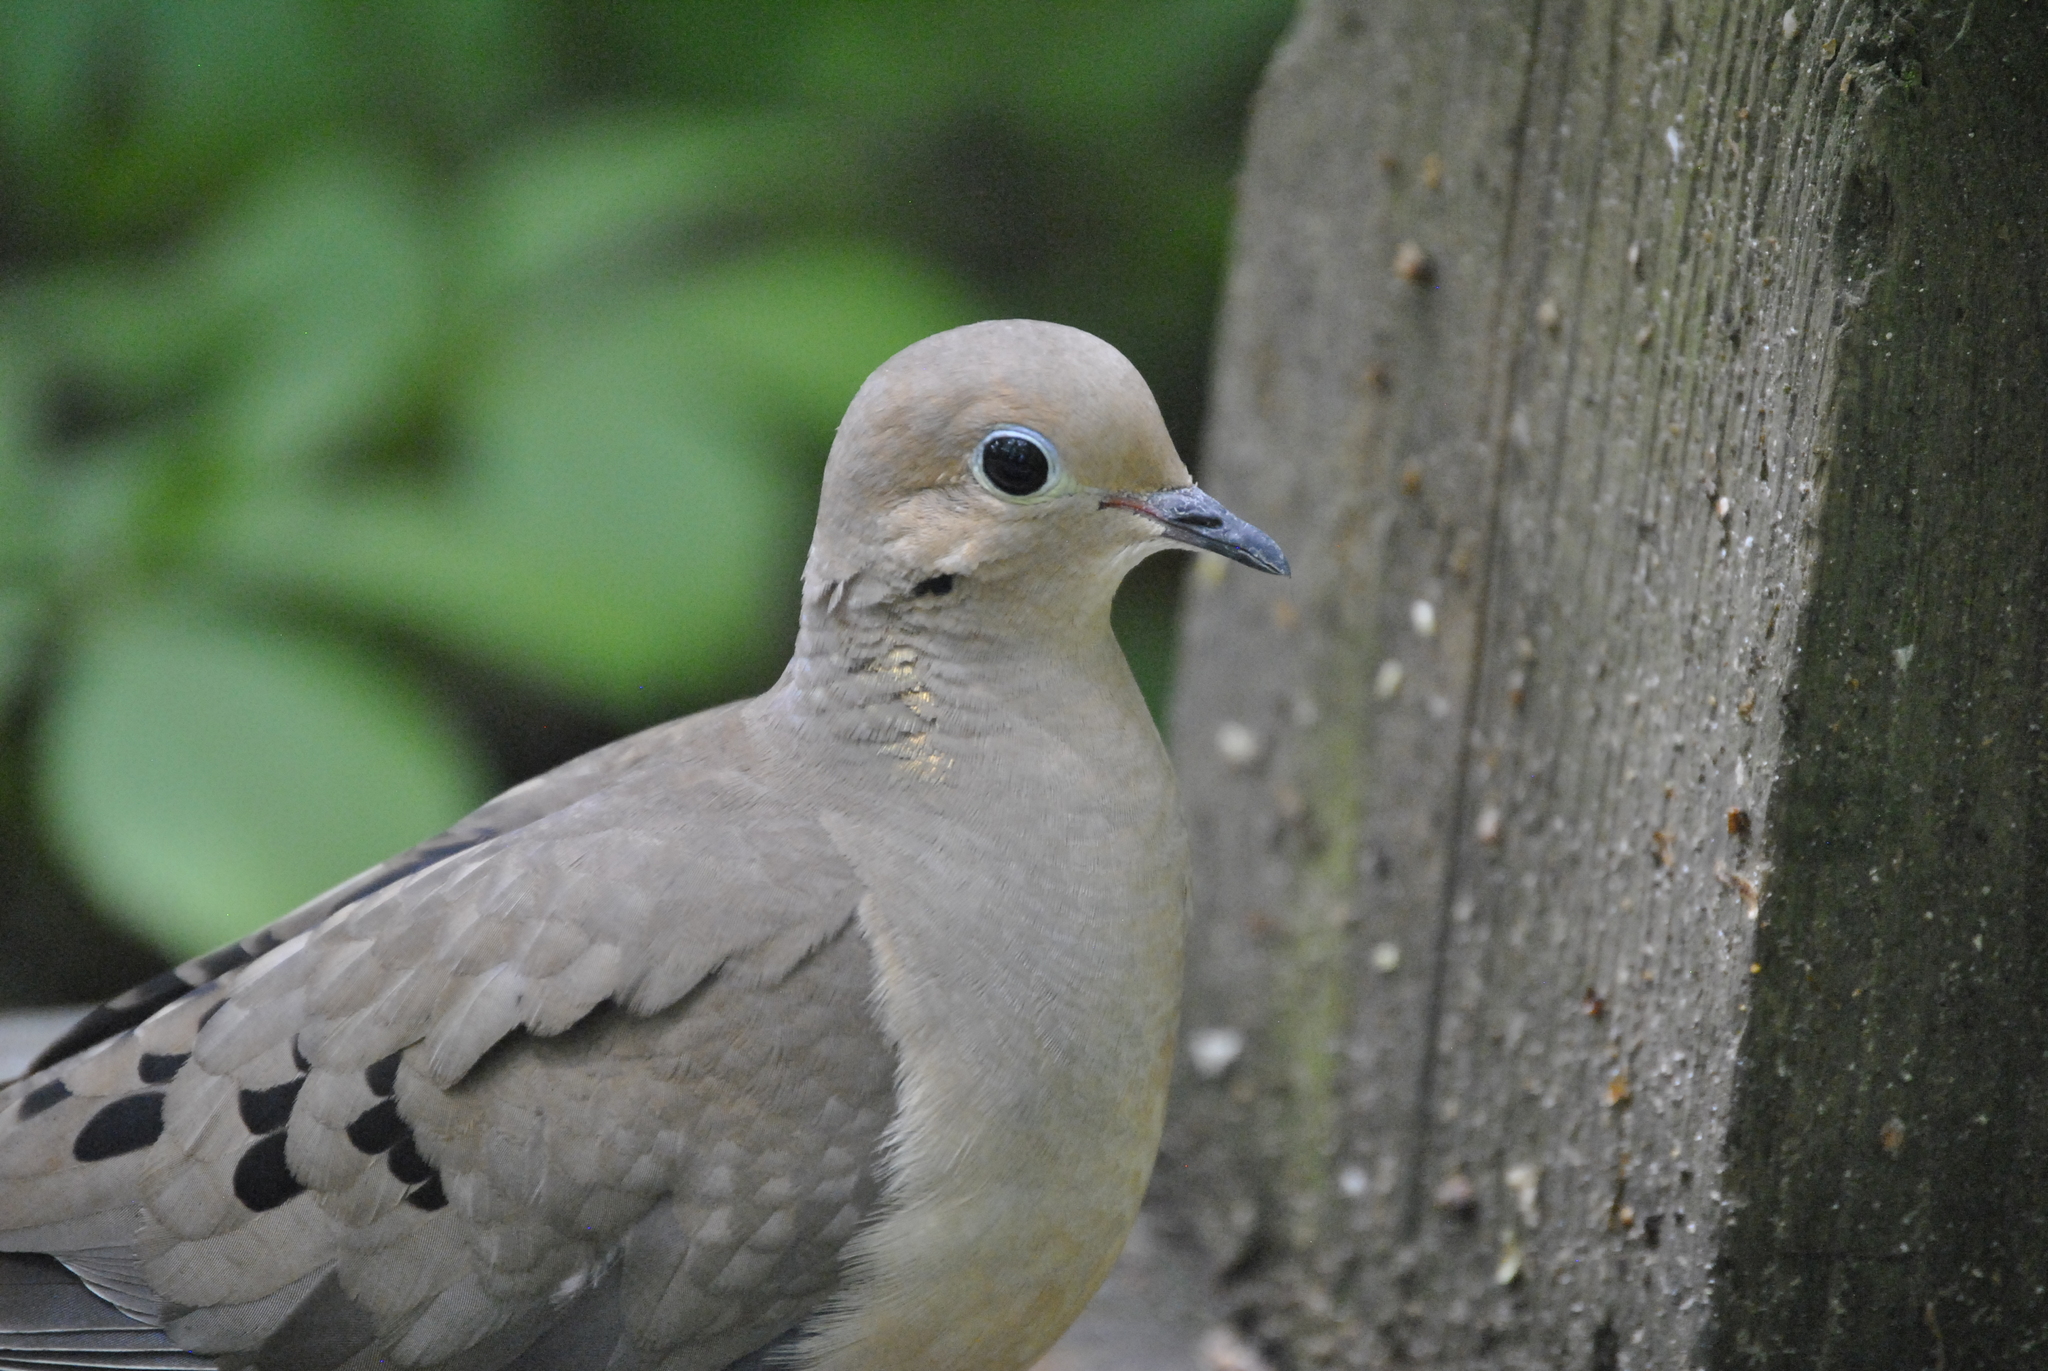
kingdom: Animalia
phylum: Chordata
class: Aves
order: Columbiformes
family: Columbidae
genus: Zenaida
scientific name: Zenaida macroura
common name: Mourning dove
